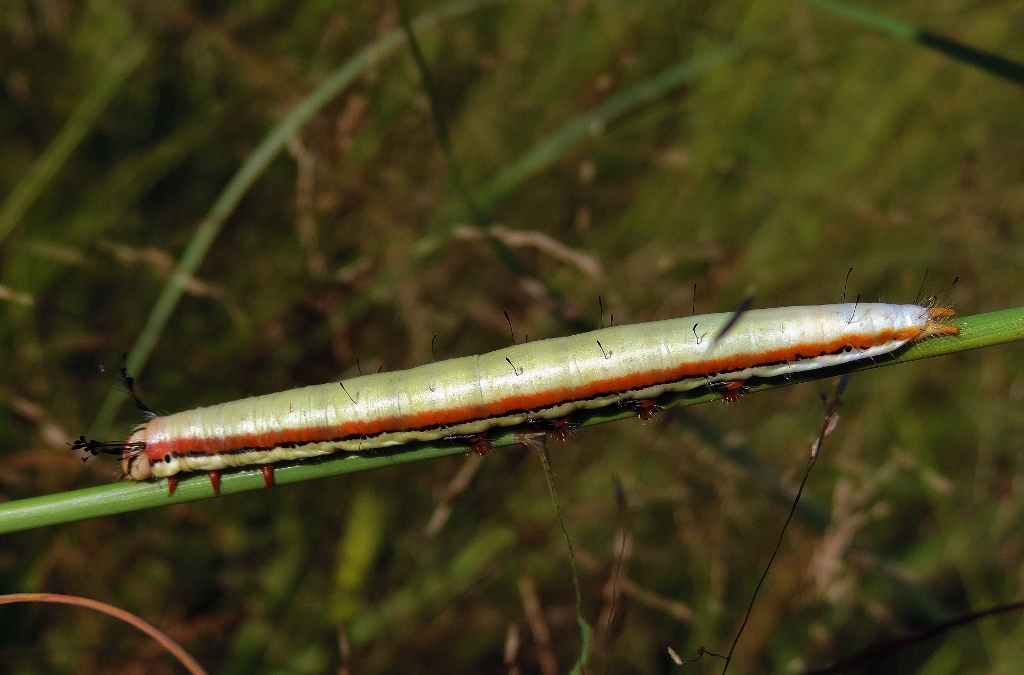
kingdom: Animalia
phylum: Arthropoda
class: Insecta
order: Lepidoptera
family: Notodontidae
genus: Antheua
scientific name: Antheua Rigema ornata
